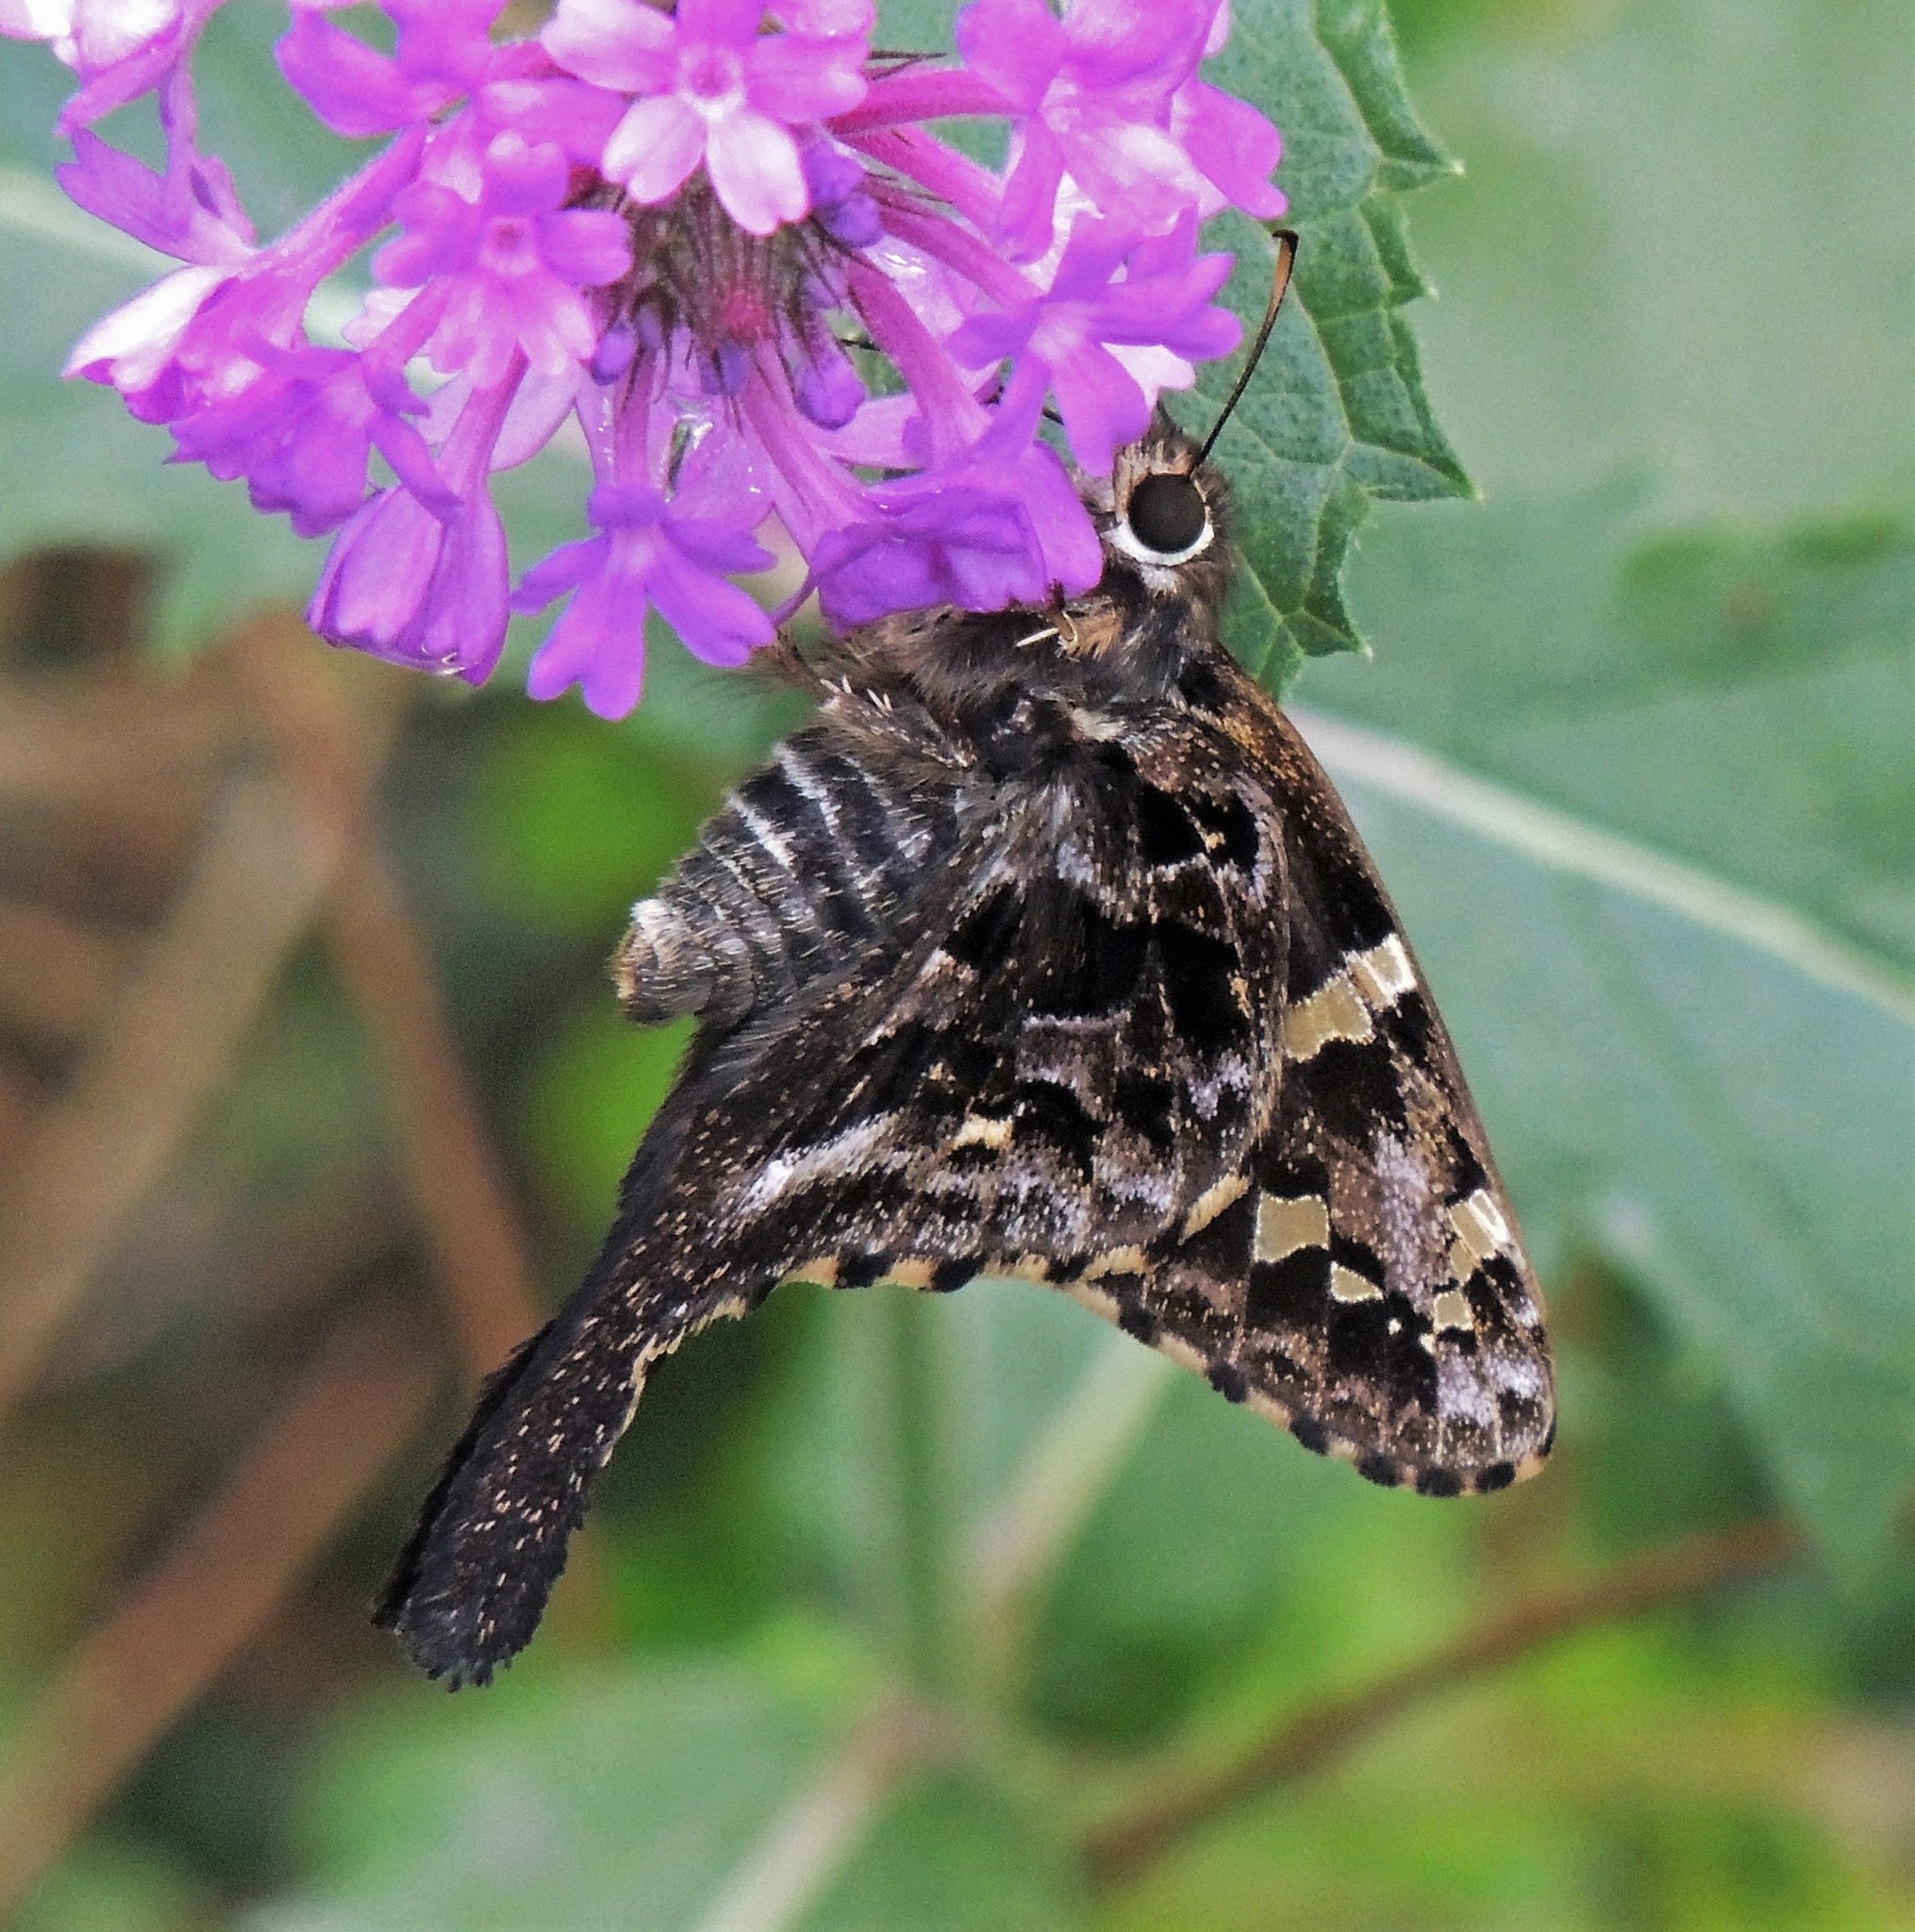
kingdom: Animalia
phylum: Arthropoda
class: Insecta
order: Lepidoptera
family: Hesperiidae
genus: Codatractus
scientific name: Codatractus aminias
